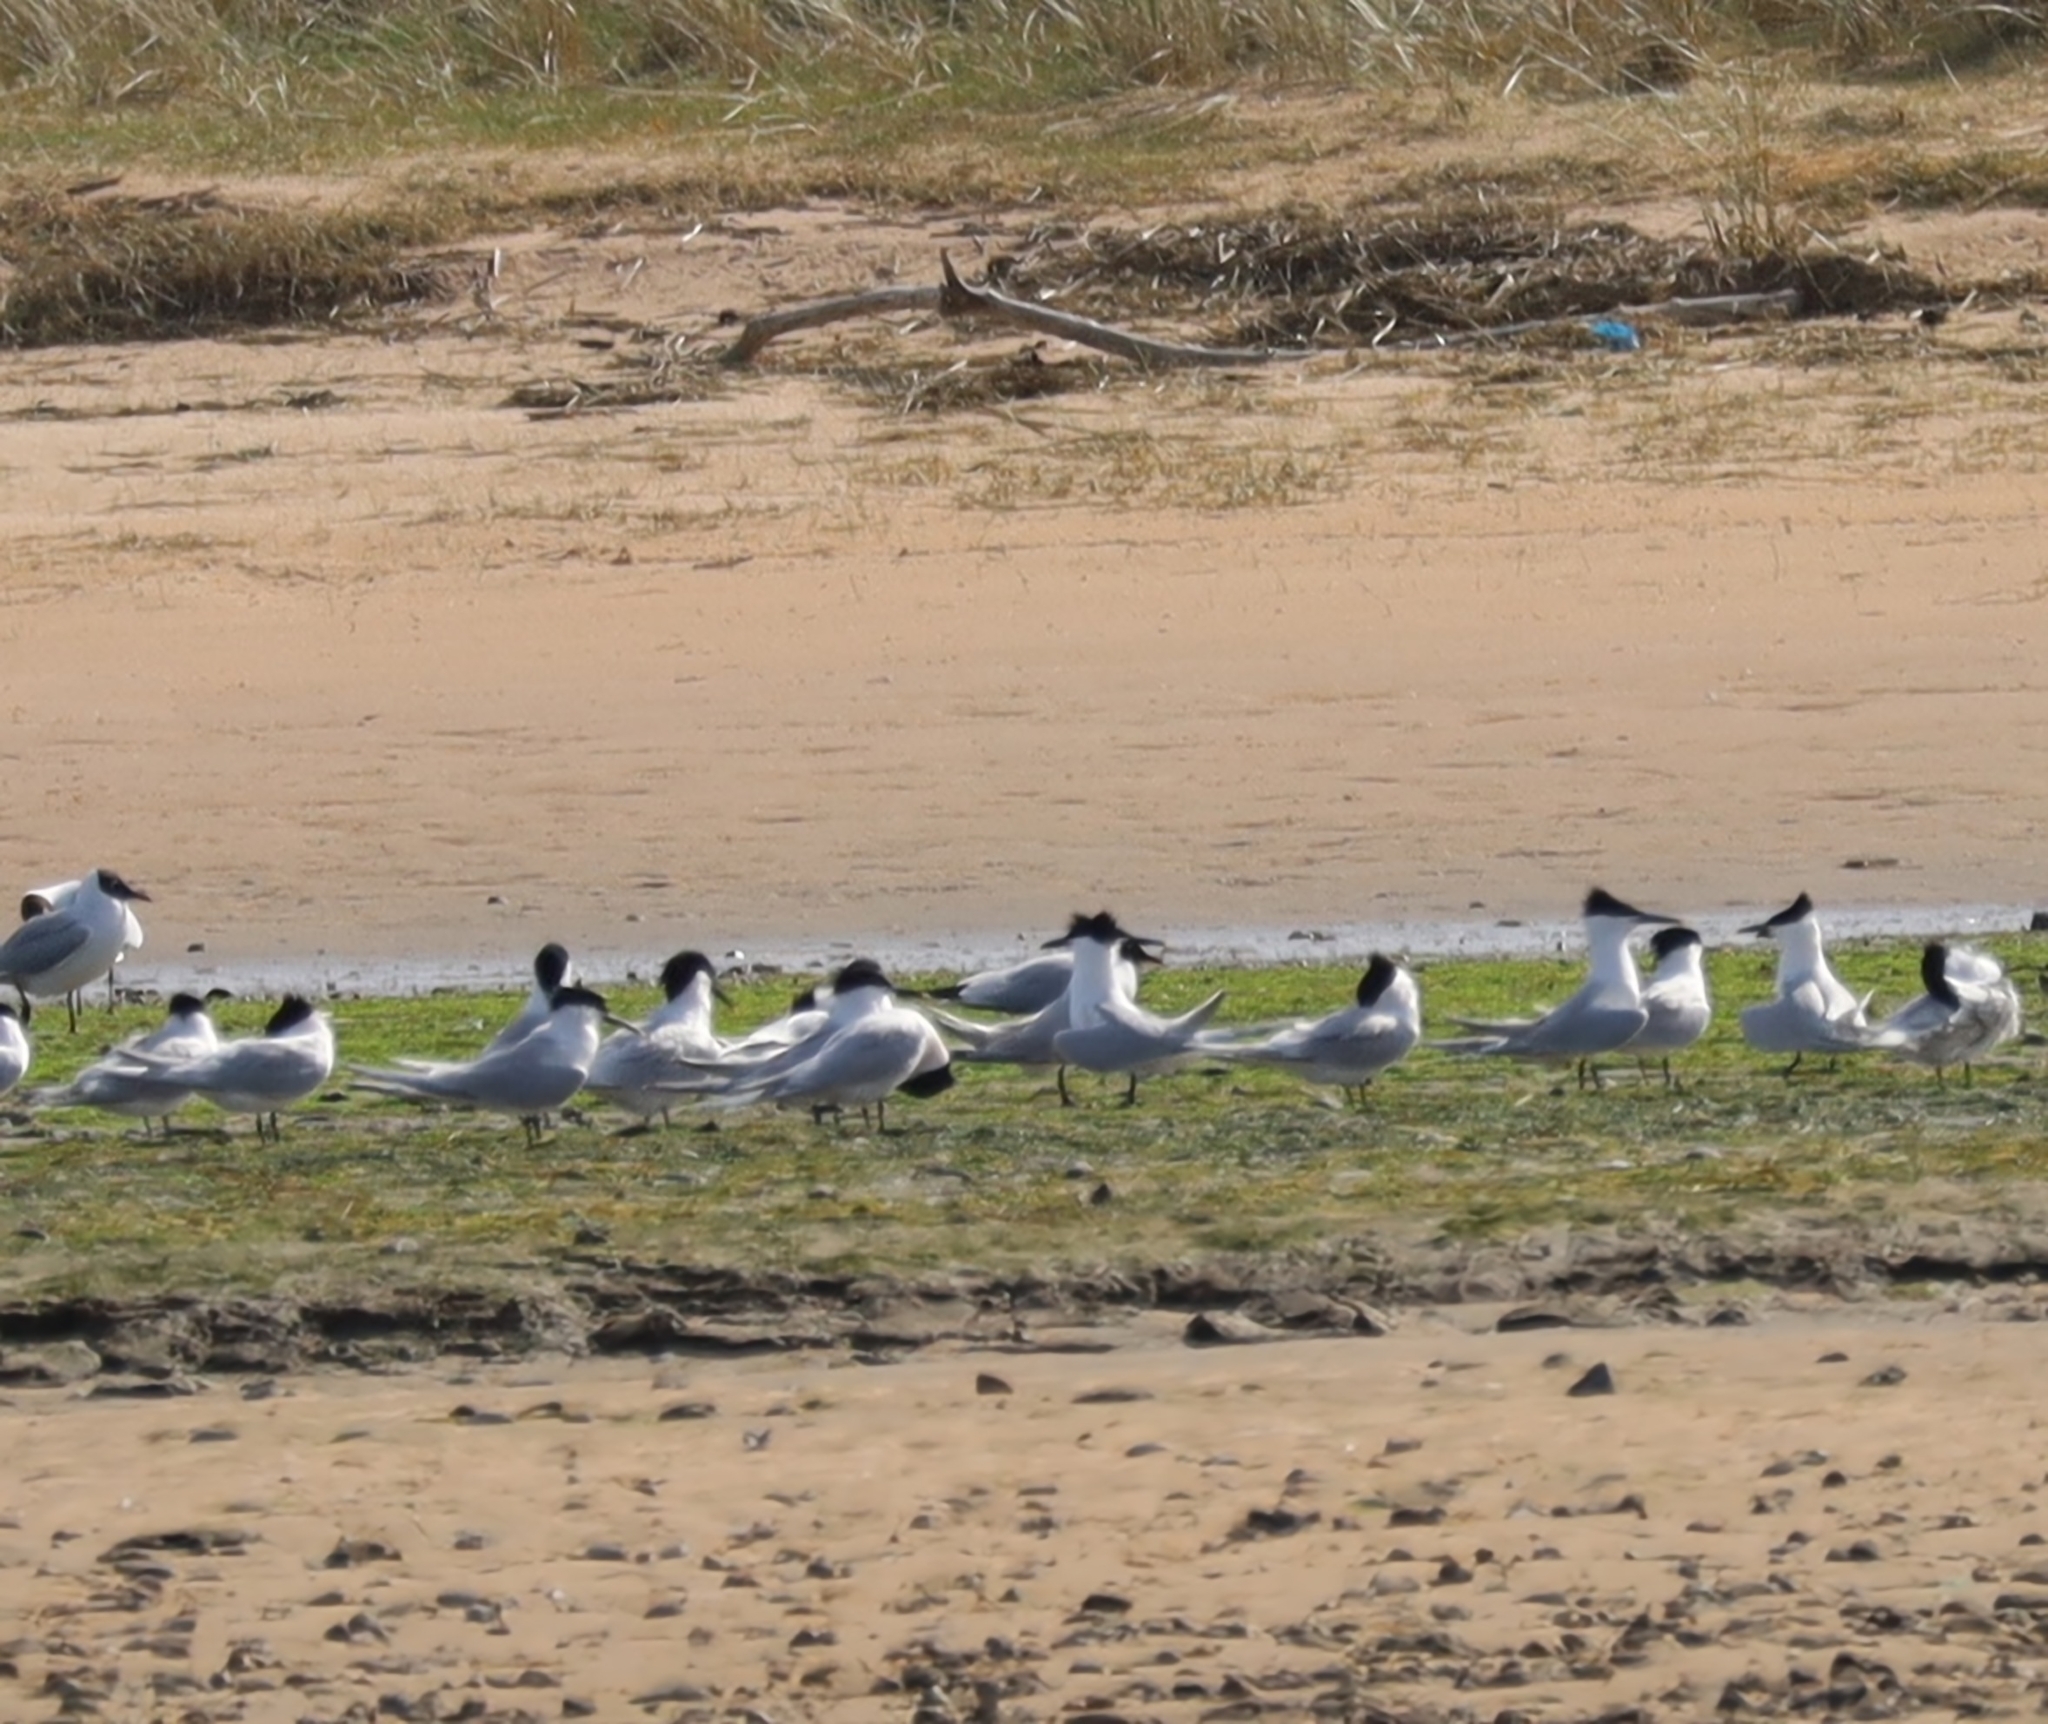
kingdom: Animalia
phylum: Chordata
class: Aves
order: Charadriiformes
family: Laridae
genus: Thalasseus
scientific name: Thalasseus sandvicensis
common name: Sandwich tern
